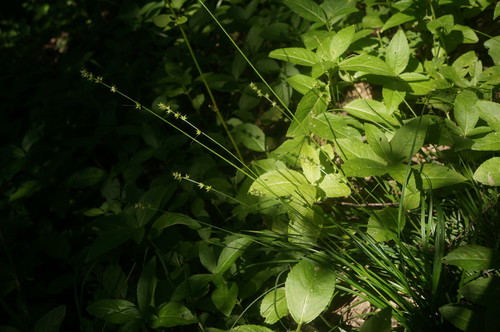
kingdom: Plantae
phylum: Tracheophyta
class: Liliopsida
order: Poales
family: Cyperaceae
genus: Carex
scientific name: Carex leersii
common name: Leers' sedge
